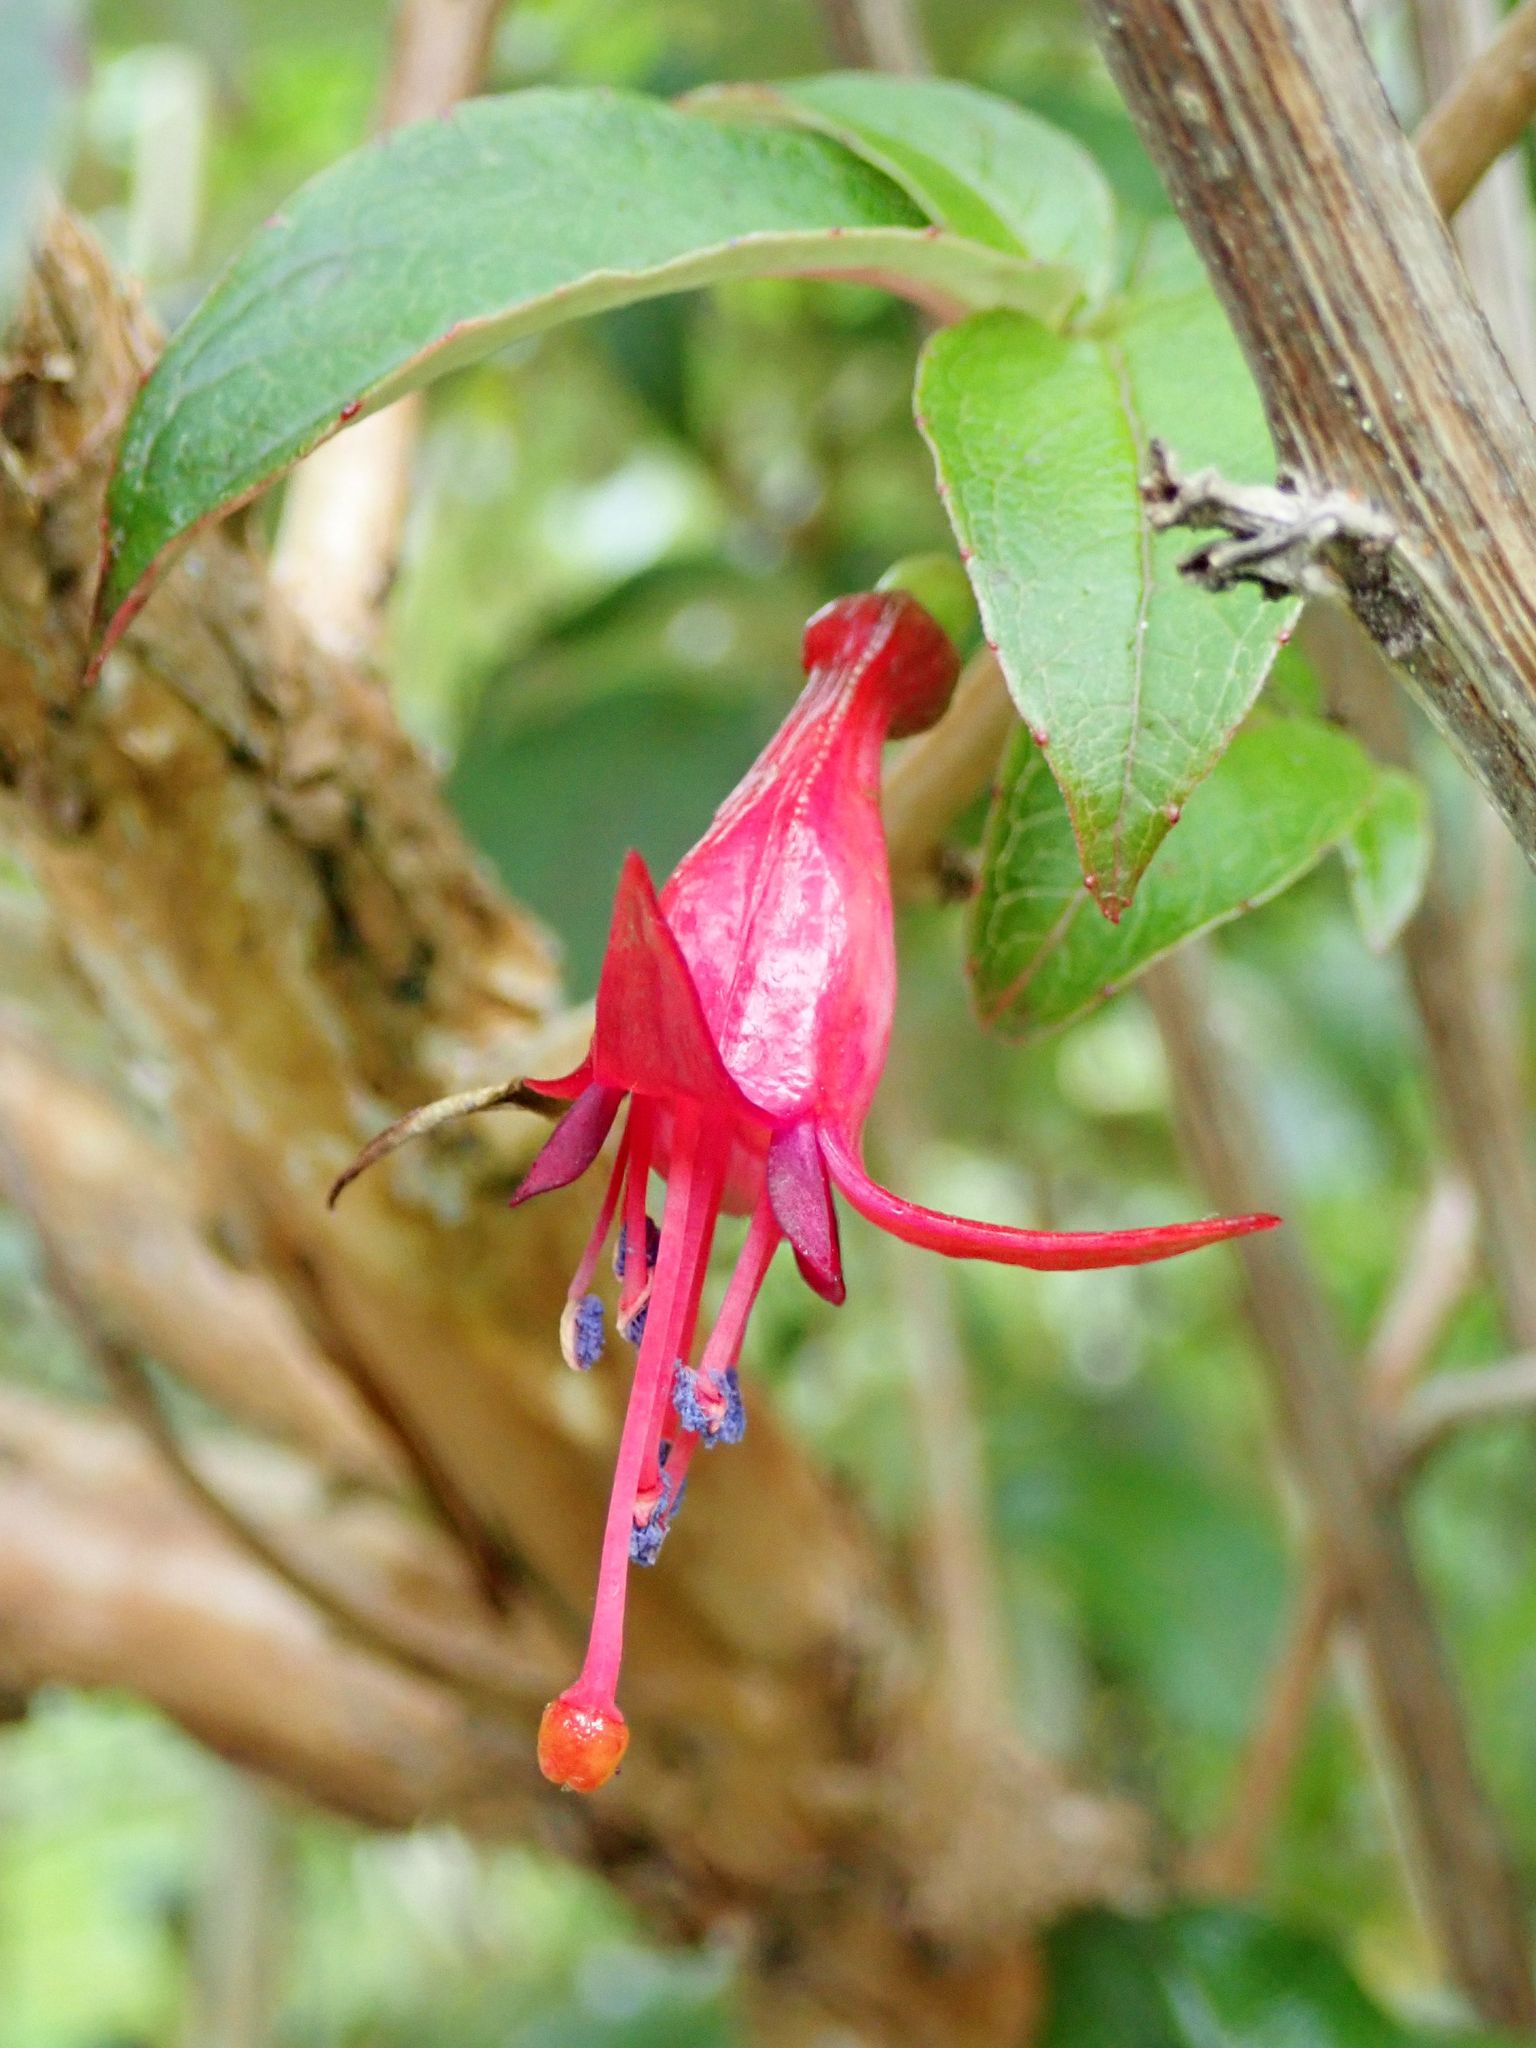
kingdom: Plantae
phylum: Tracheophyta
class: Magnoliopsida
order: Myrtales
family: Onagraceae
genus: Fuchsia
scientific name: Fuchsia excorticata
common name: Tree fuchsia
